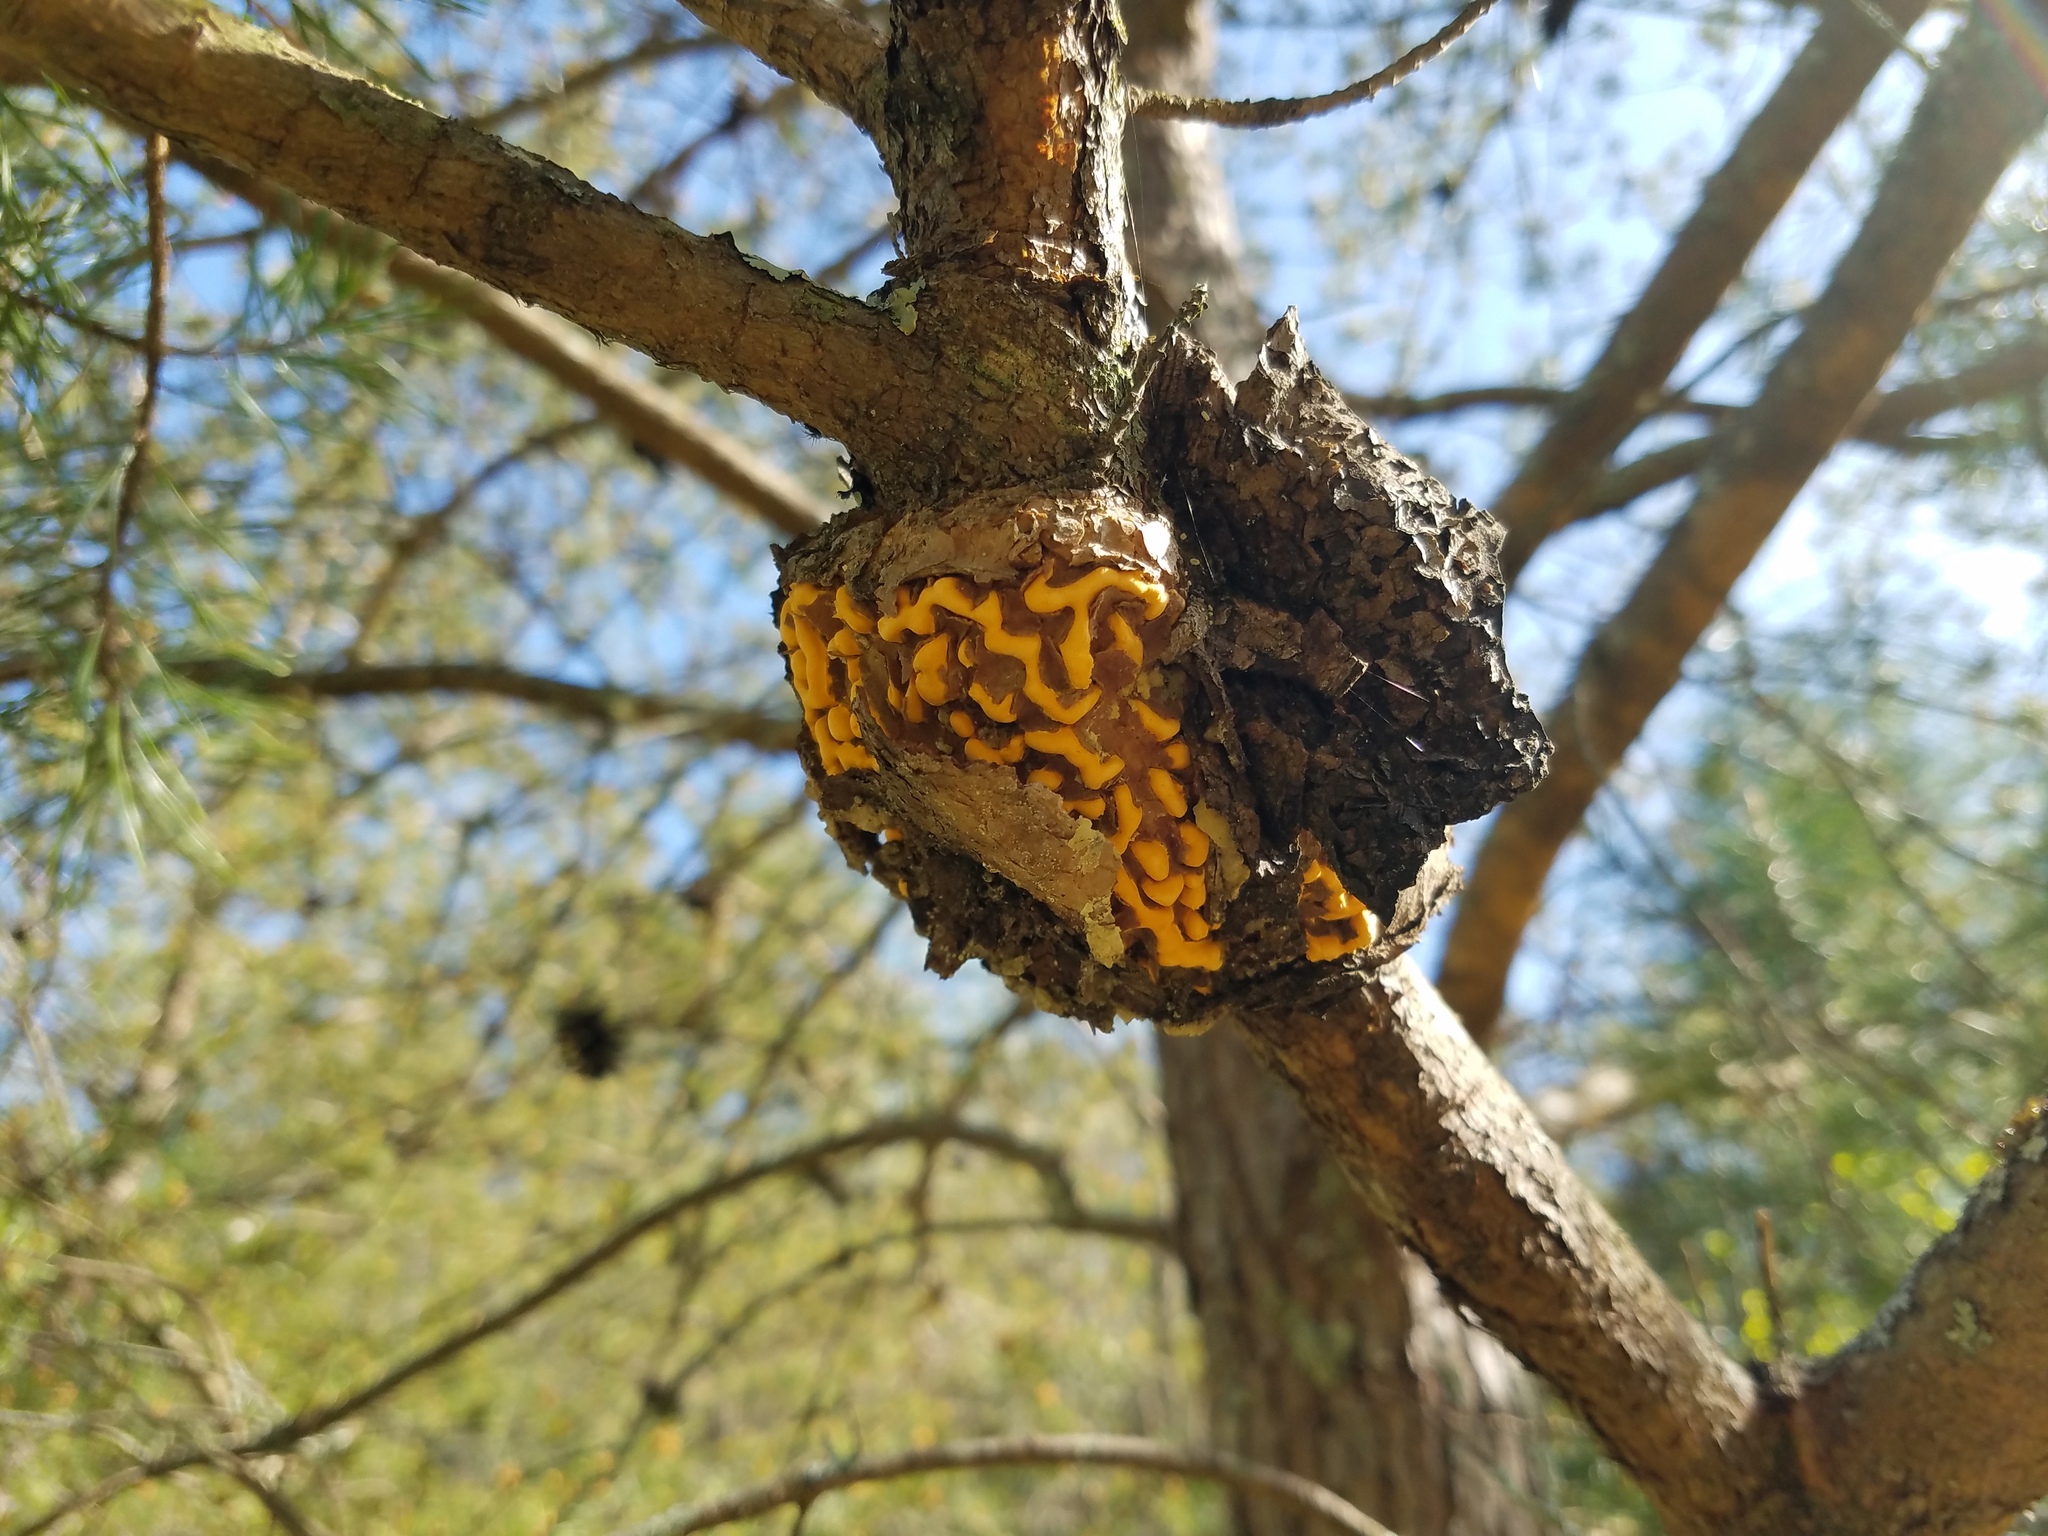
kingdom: Fungi
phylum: Basidiomycota
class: Pucciniomycetes
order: Pucciniales
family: Cronartiaceae
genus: Cronartium
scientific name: Cronartium fusiforme
